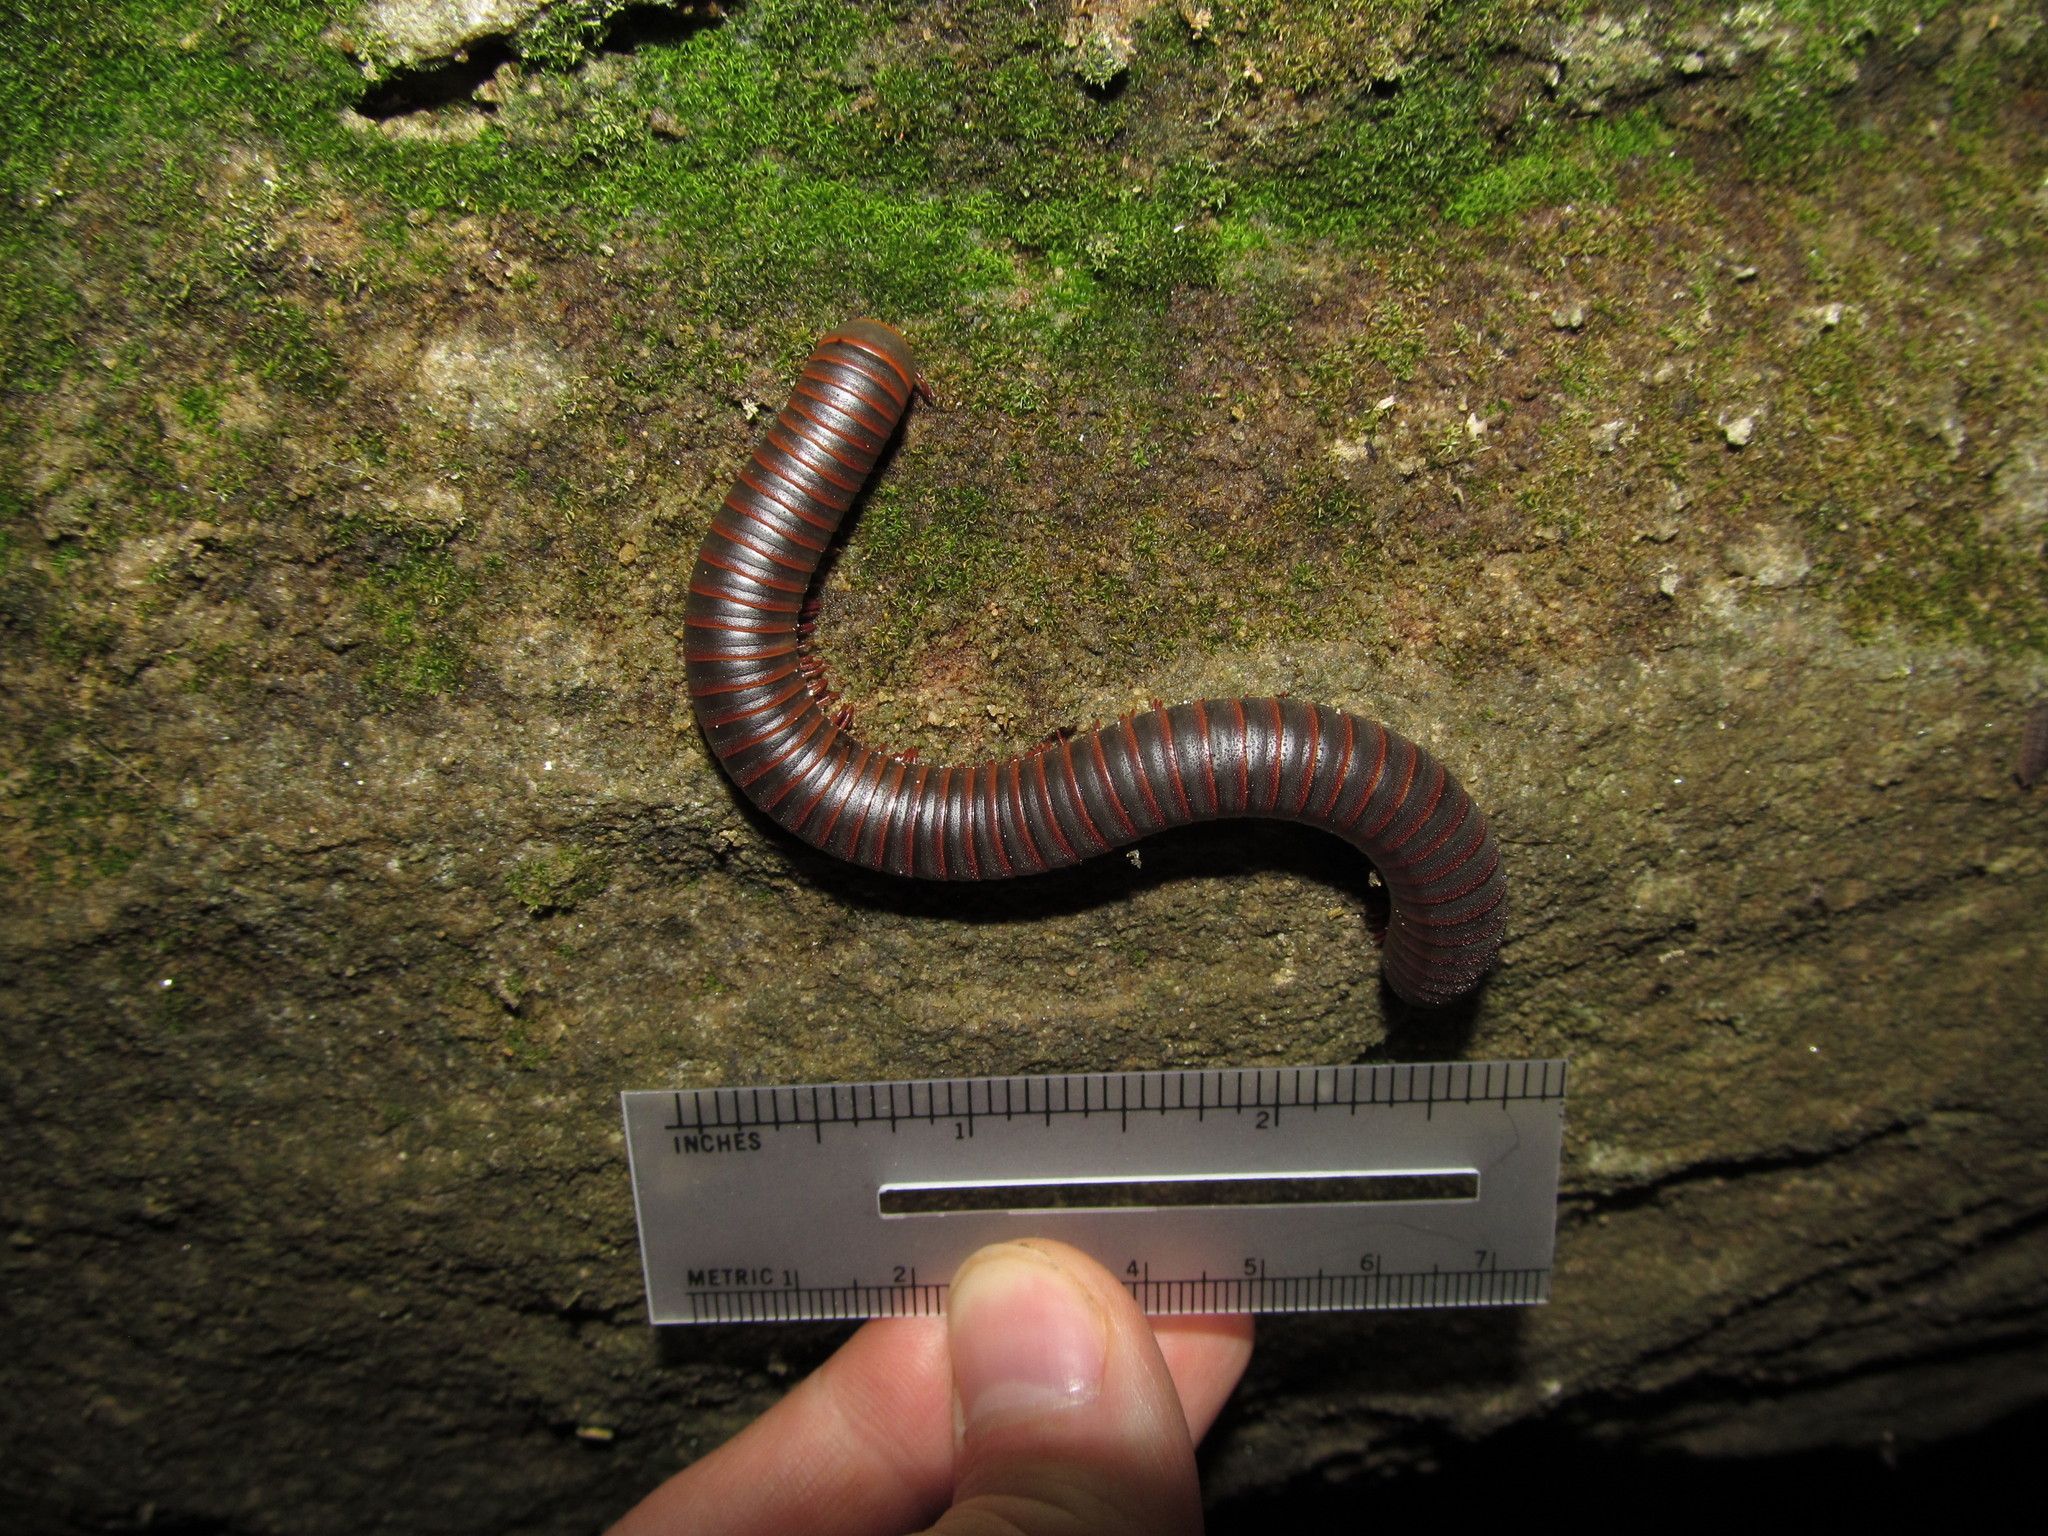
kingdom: Animalia
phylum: Arthropoda
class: Diplopoda
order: Spirobolida
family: Spirobolidae
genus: Narceus
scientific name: Narceus
